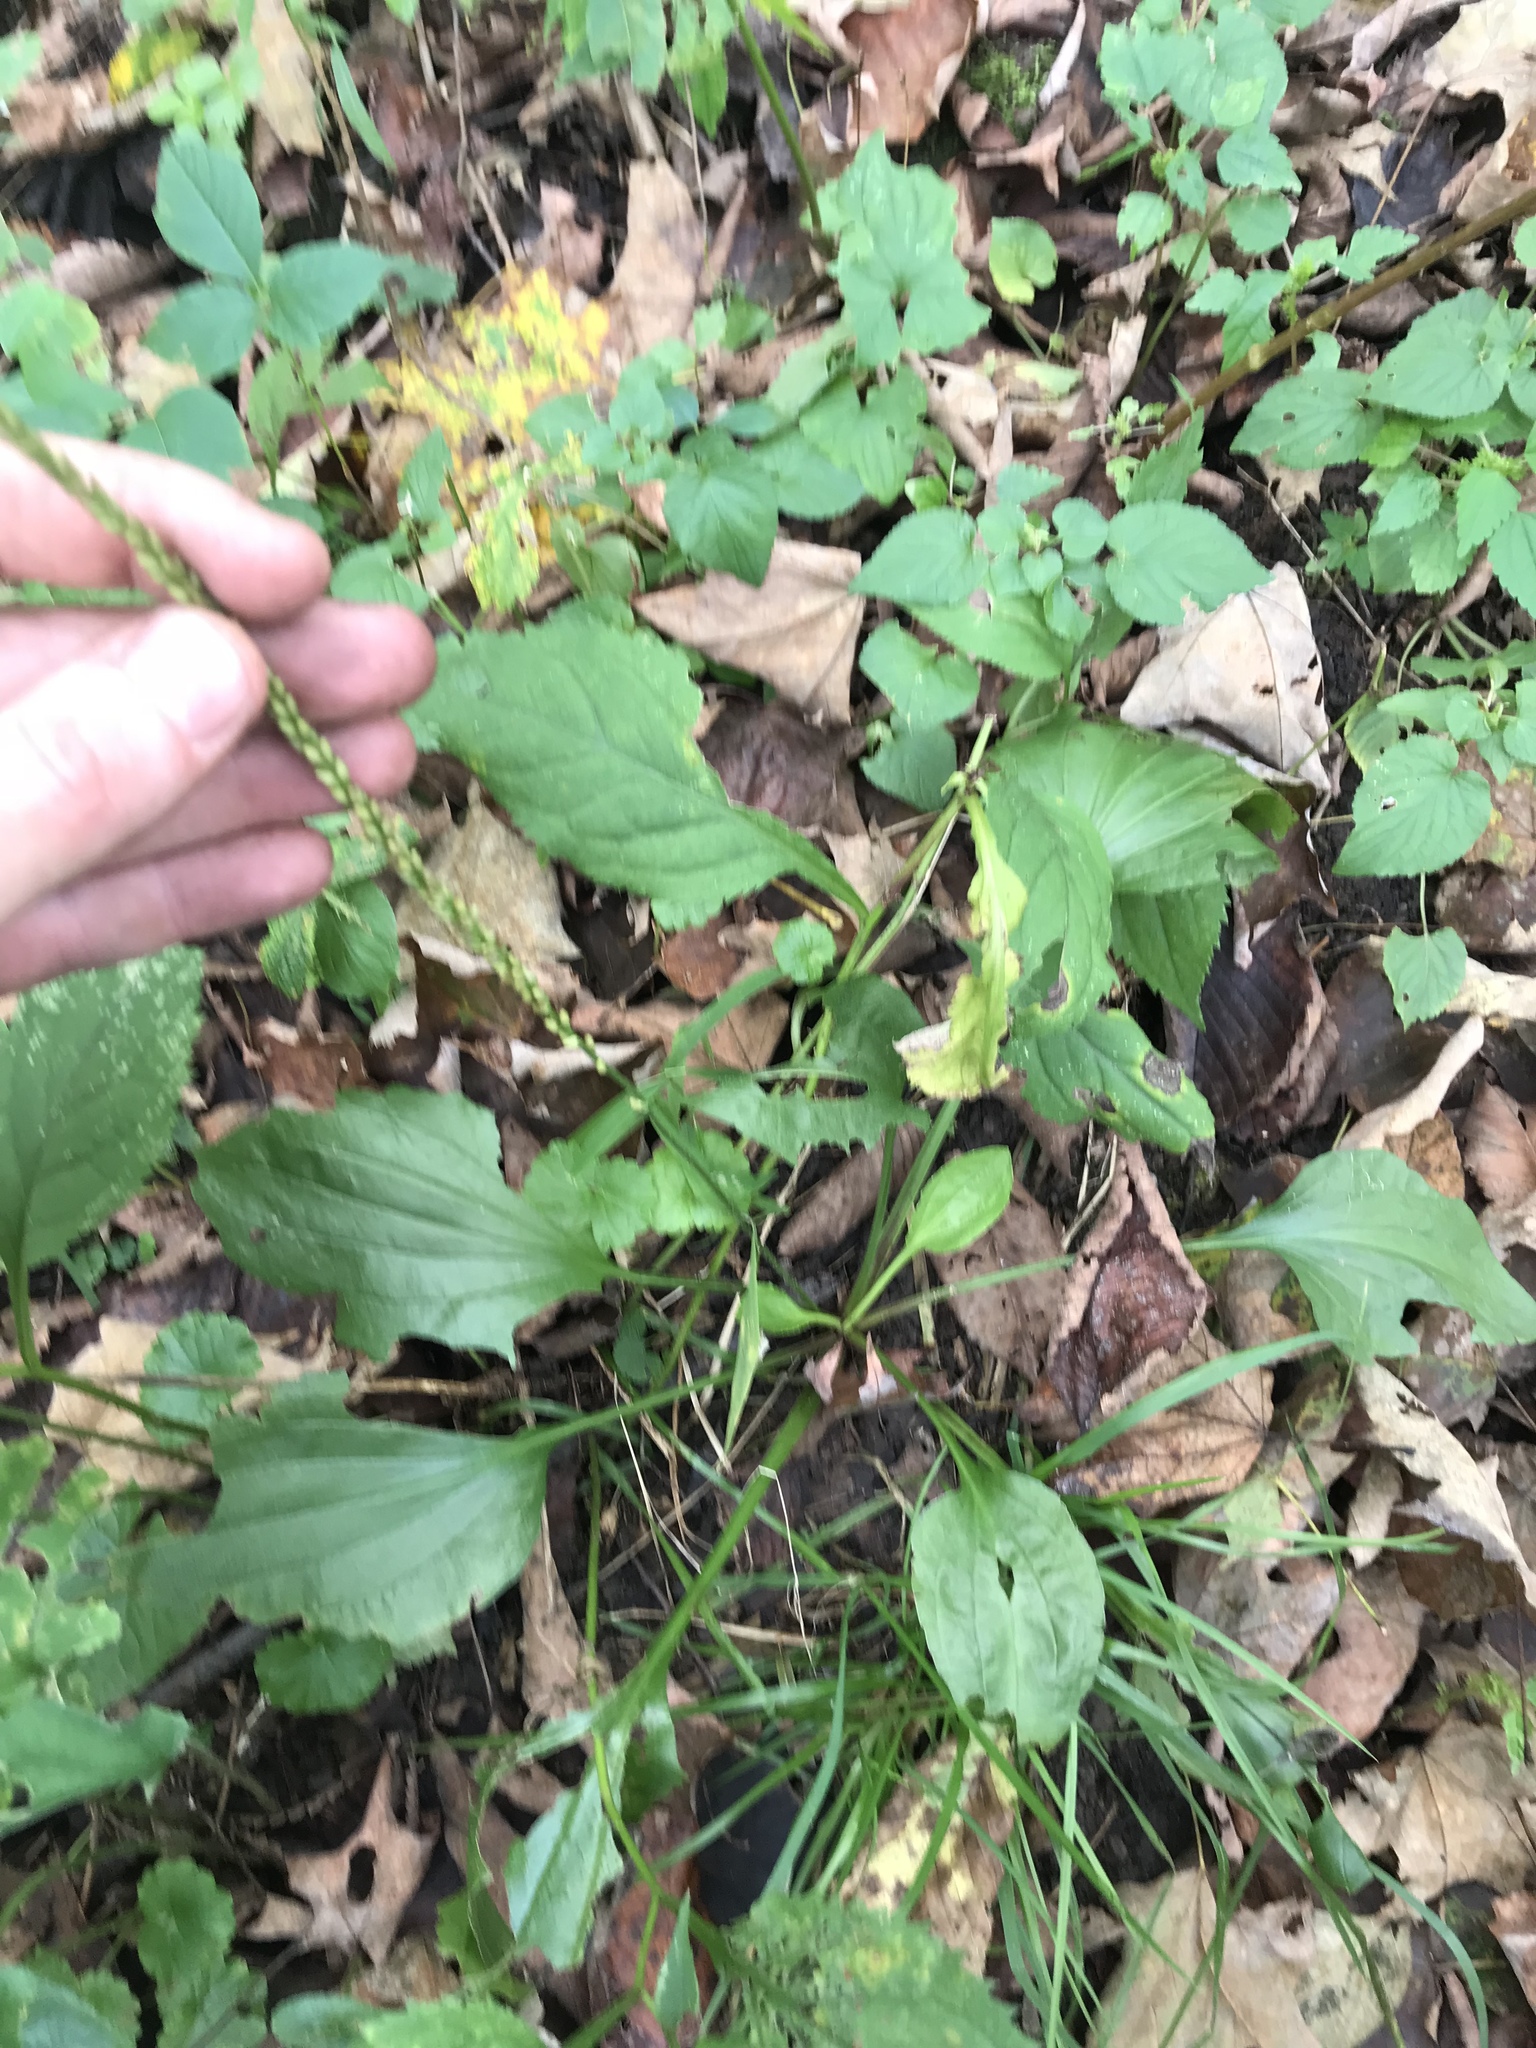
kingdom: Plantae
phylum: Tracheophyta
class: Magnoliopsida
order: Lamiales
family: Plantaginaceae
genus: Plantago
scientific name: Plantago rugelii
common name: American plantain
